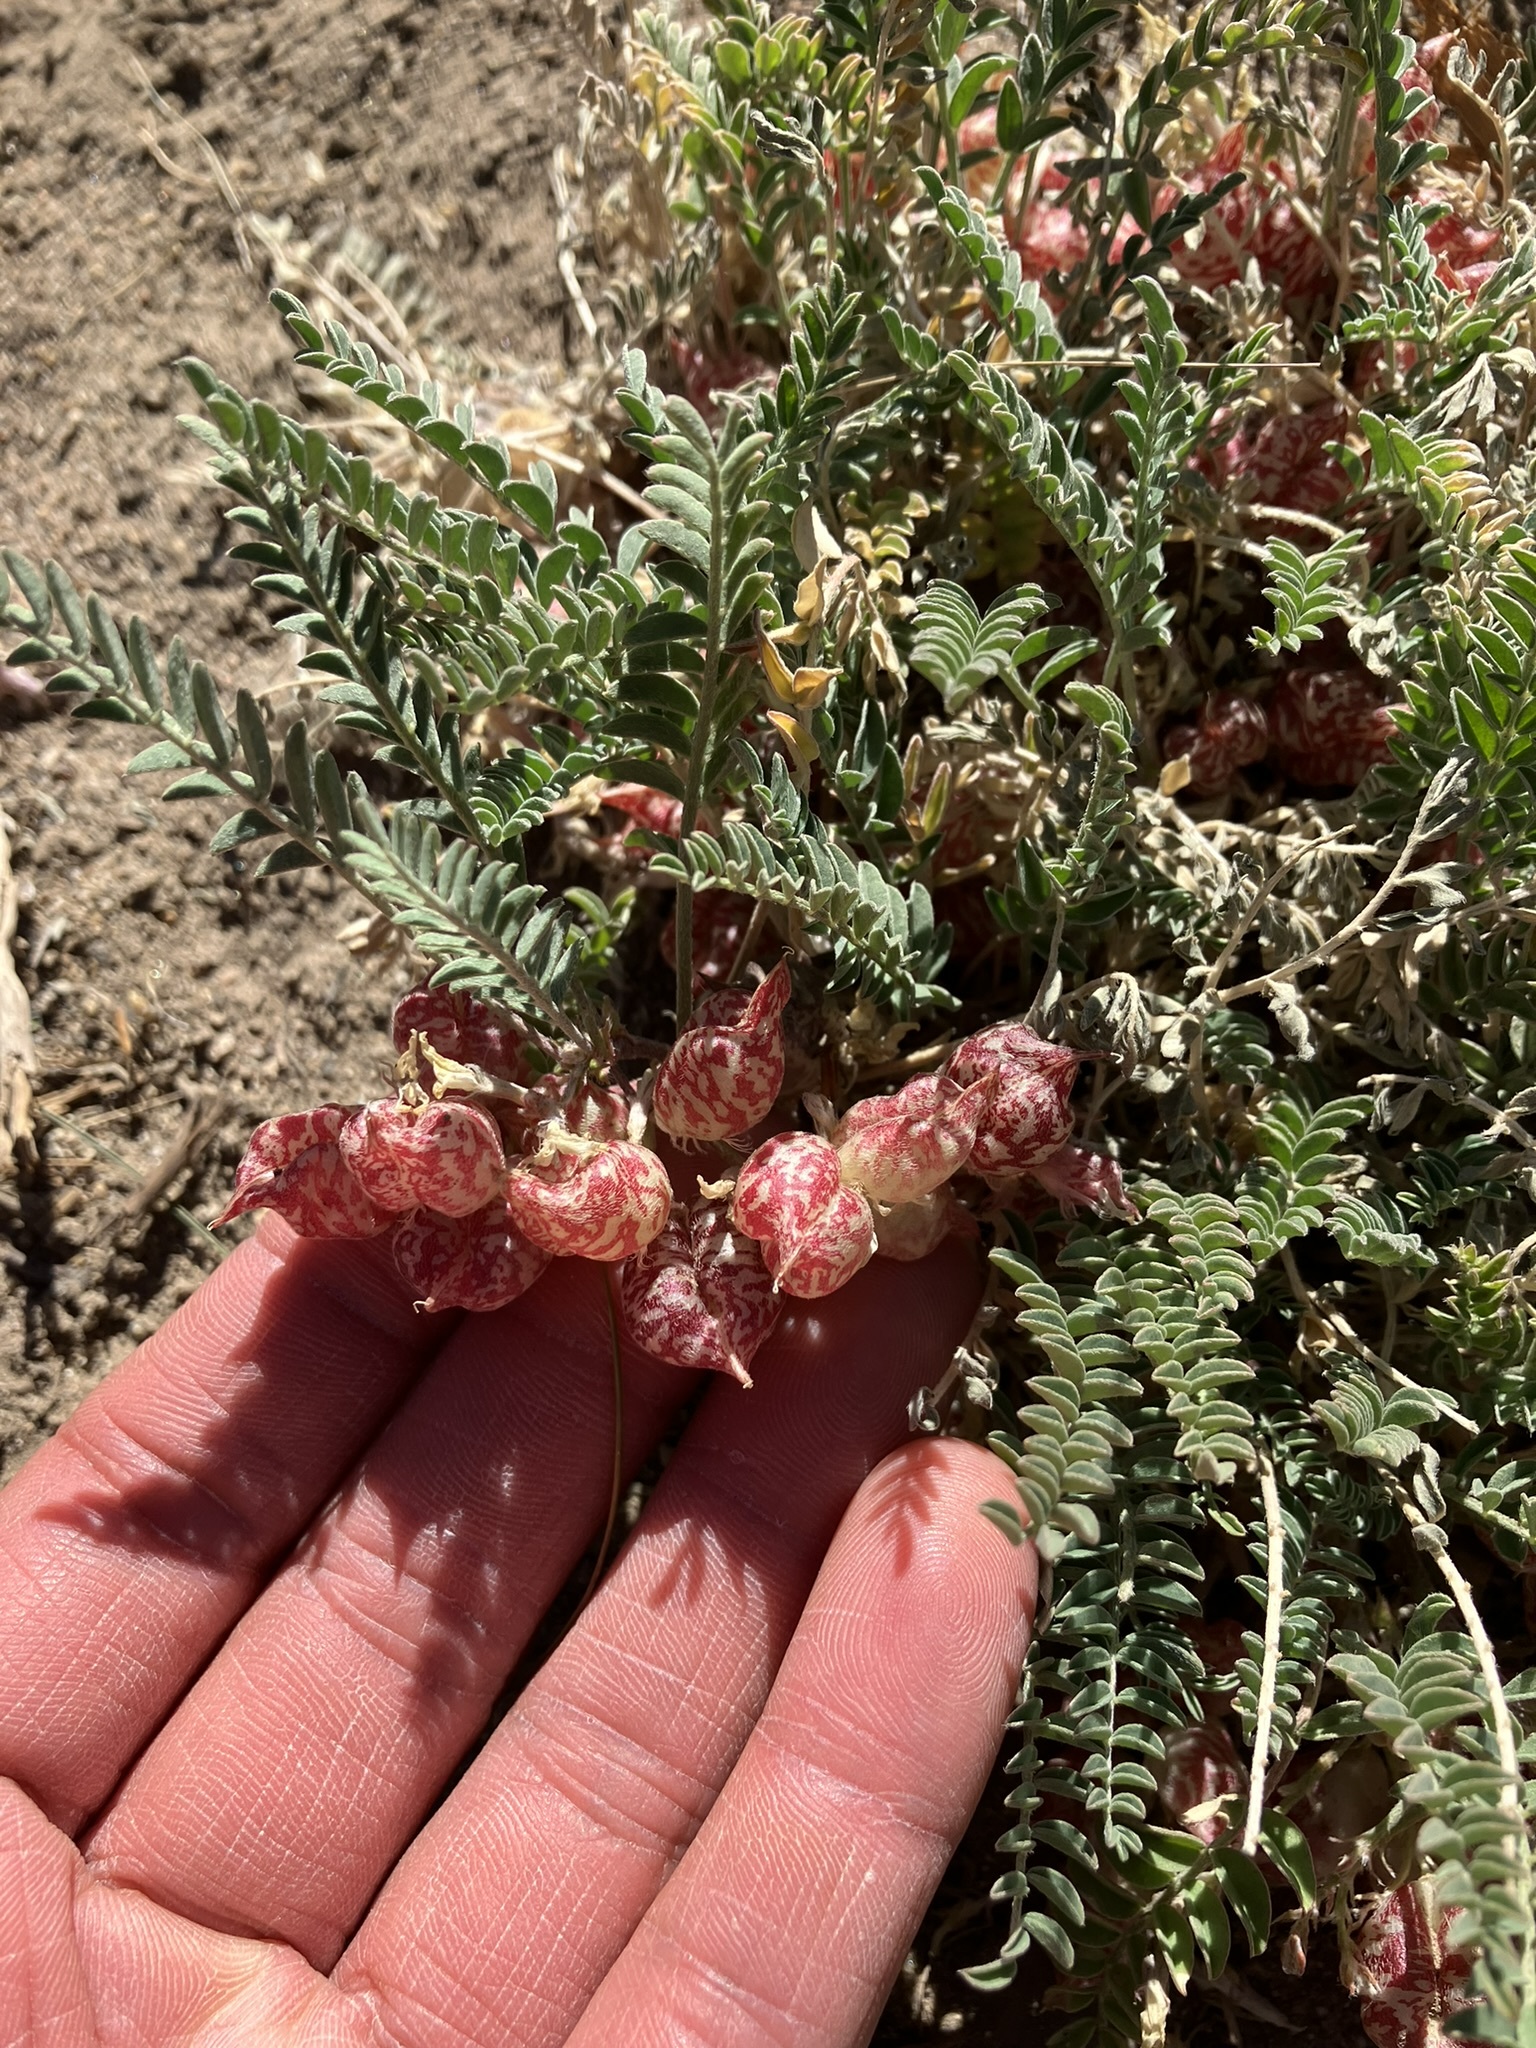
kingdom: Plantae
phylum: Tracheophyta
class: Magnoliopsida
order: Fabales
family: Fabaceae
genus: Astragalus
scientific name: Astragalus lentiginosus
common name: Freckled milkvetch
